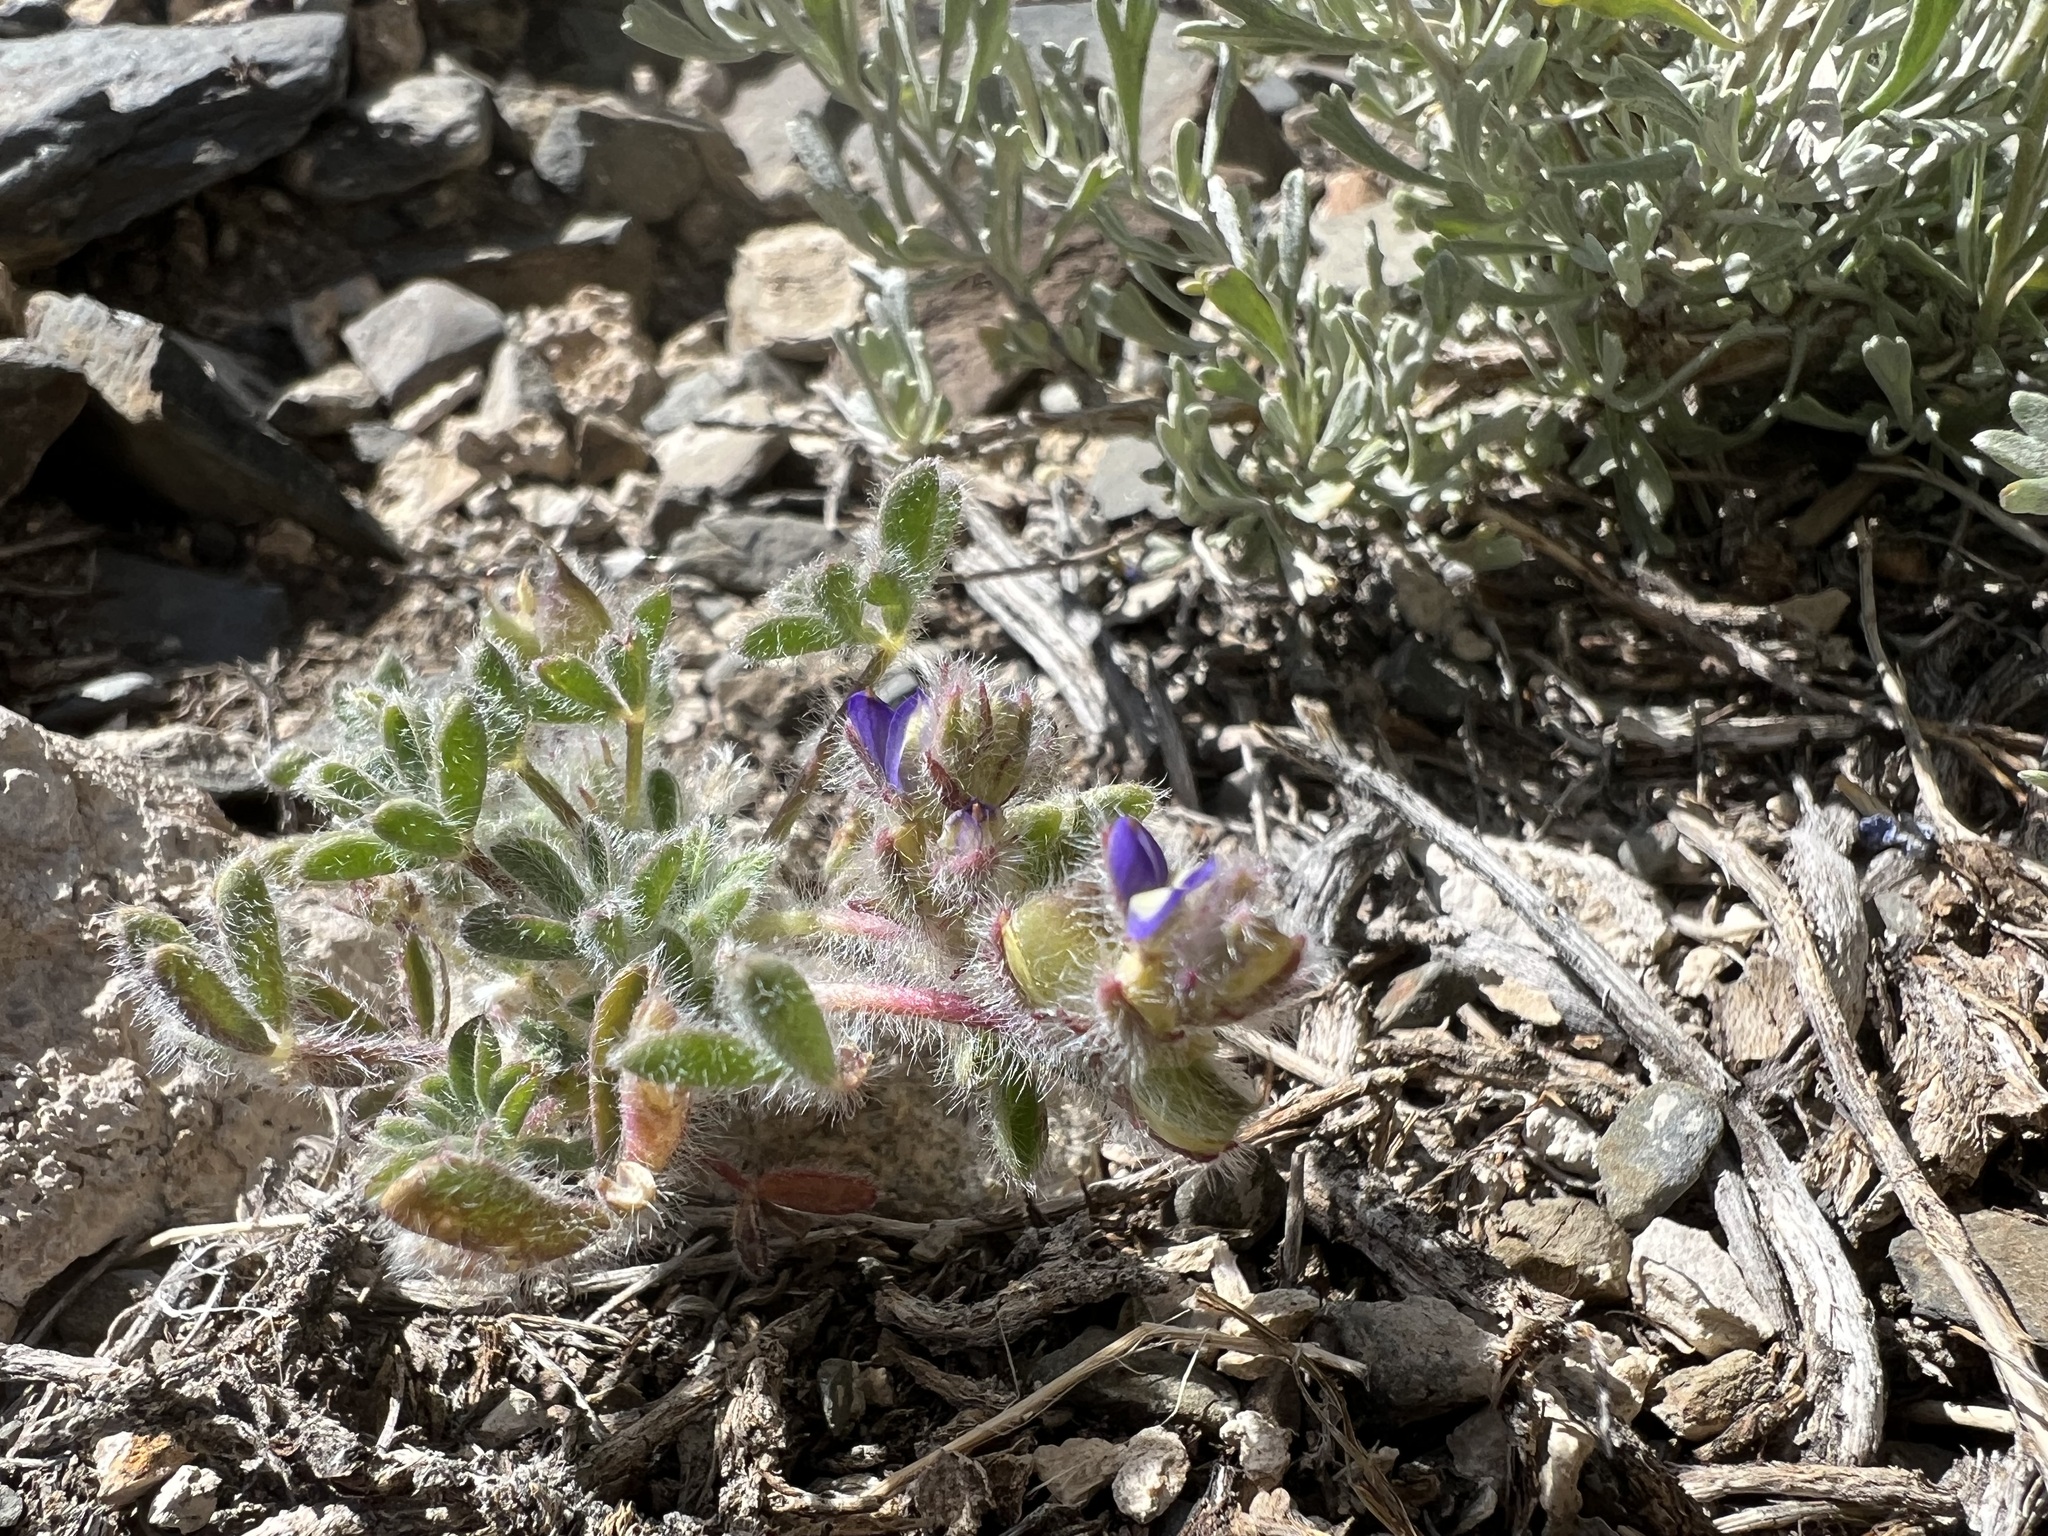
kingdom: Plantae
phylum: Tracheophyta
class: Magnoliopsida
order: Fabales
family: Fabaceae
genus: Lupinus
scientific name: Lupinus brevicaulis
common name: Sand lupine
